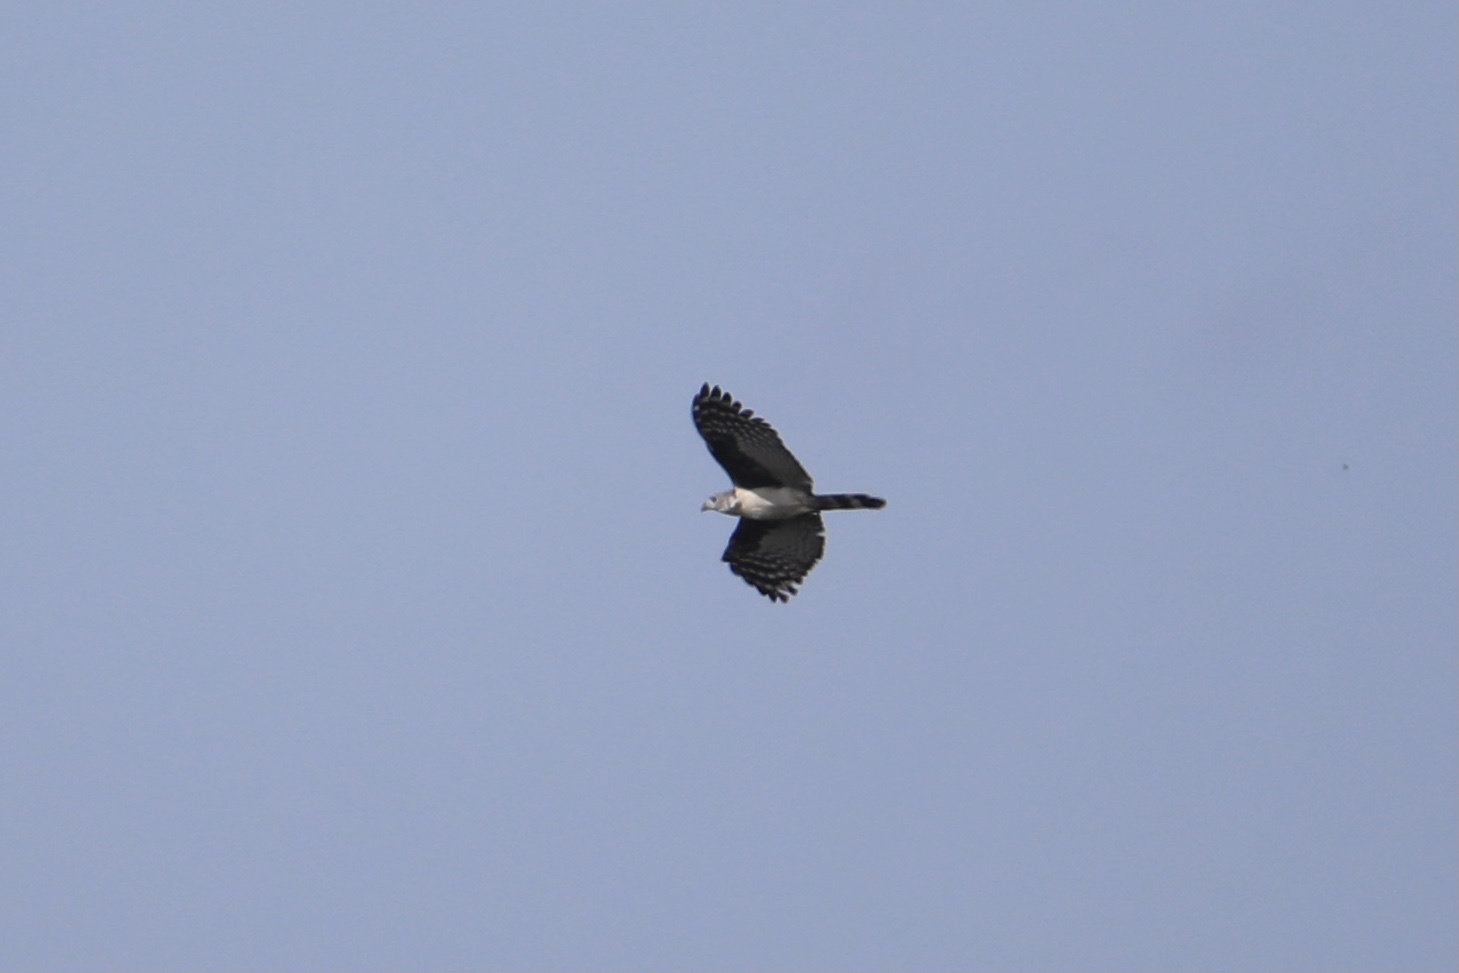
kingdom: Animalia
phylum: Chordata
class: Aves
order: Accipitriformes
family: Accipitridae
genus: Leptodon
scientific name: Leptodon cayanensis
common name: Gray-headed kite
